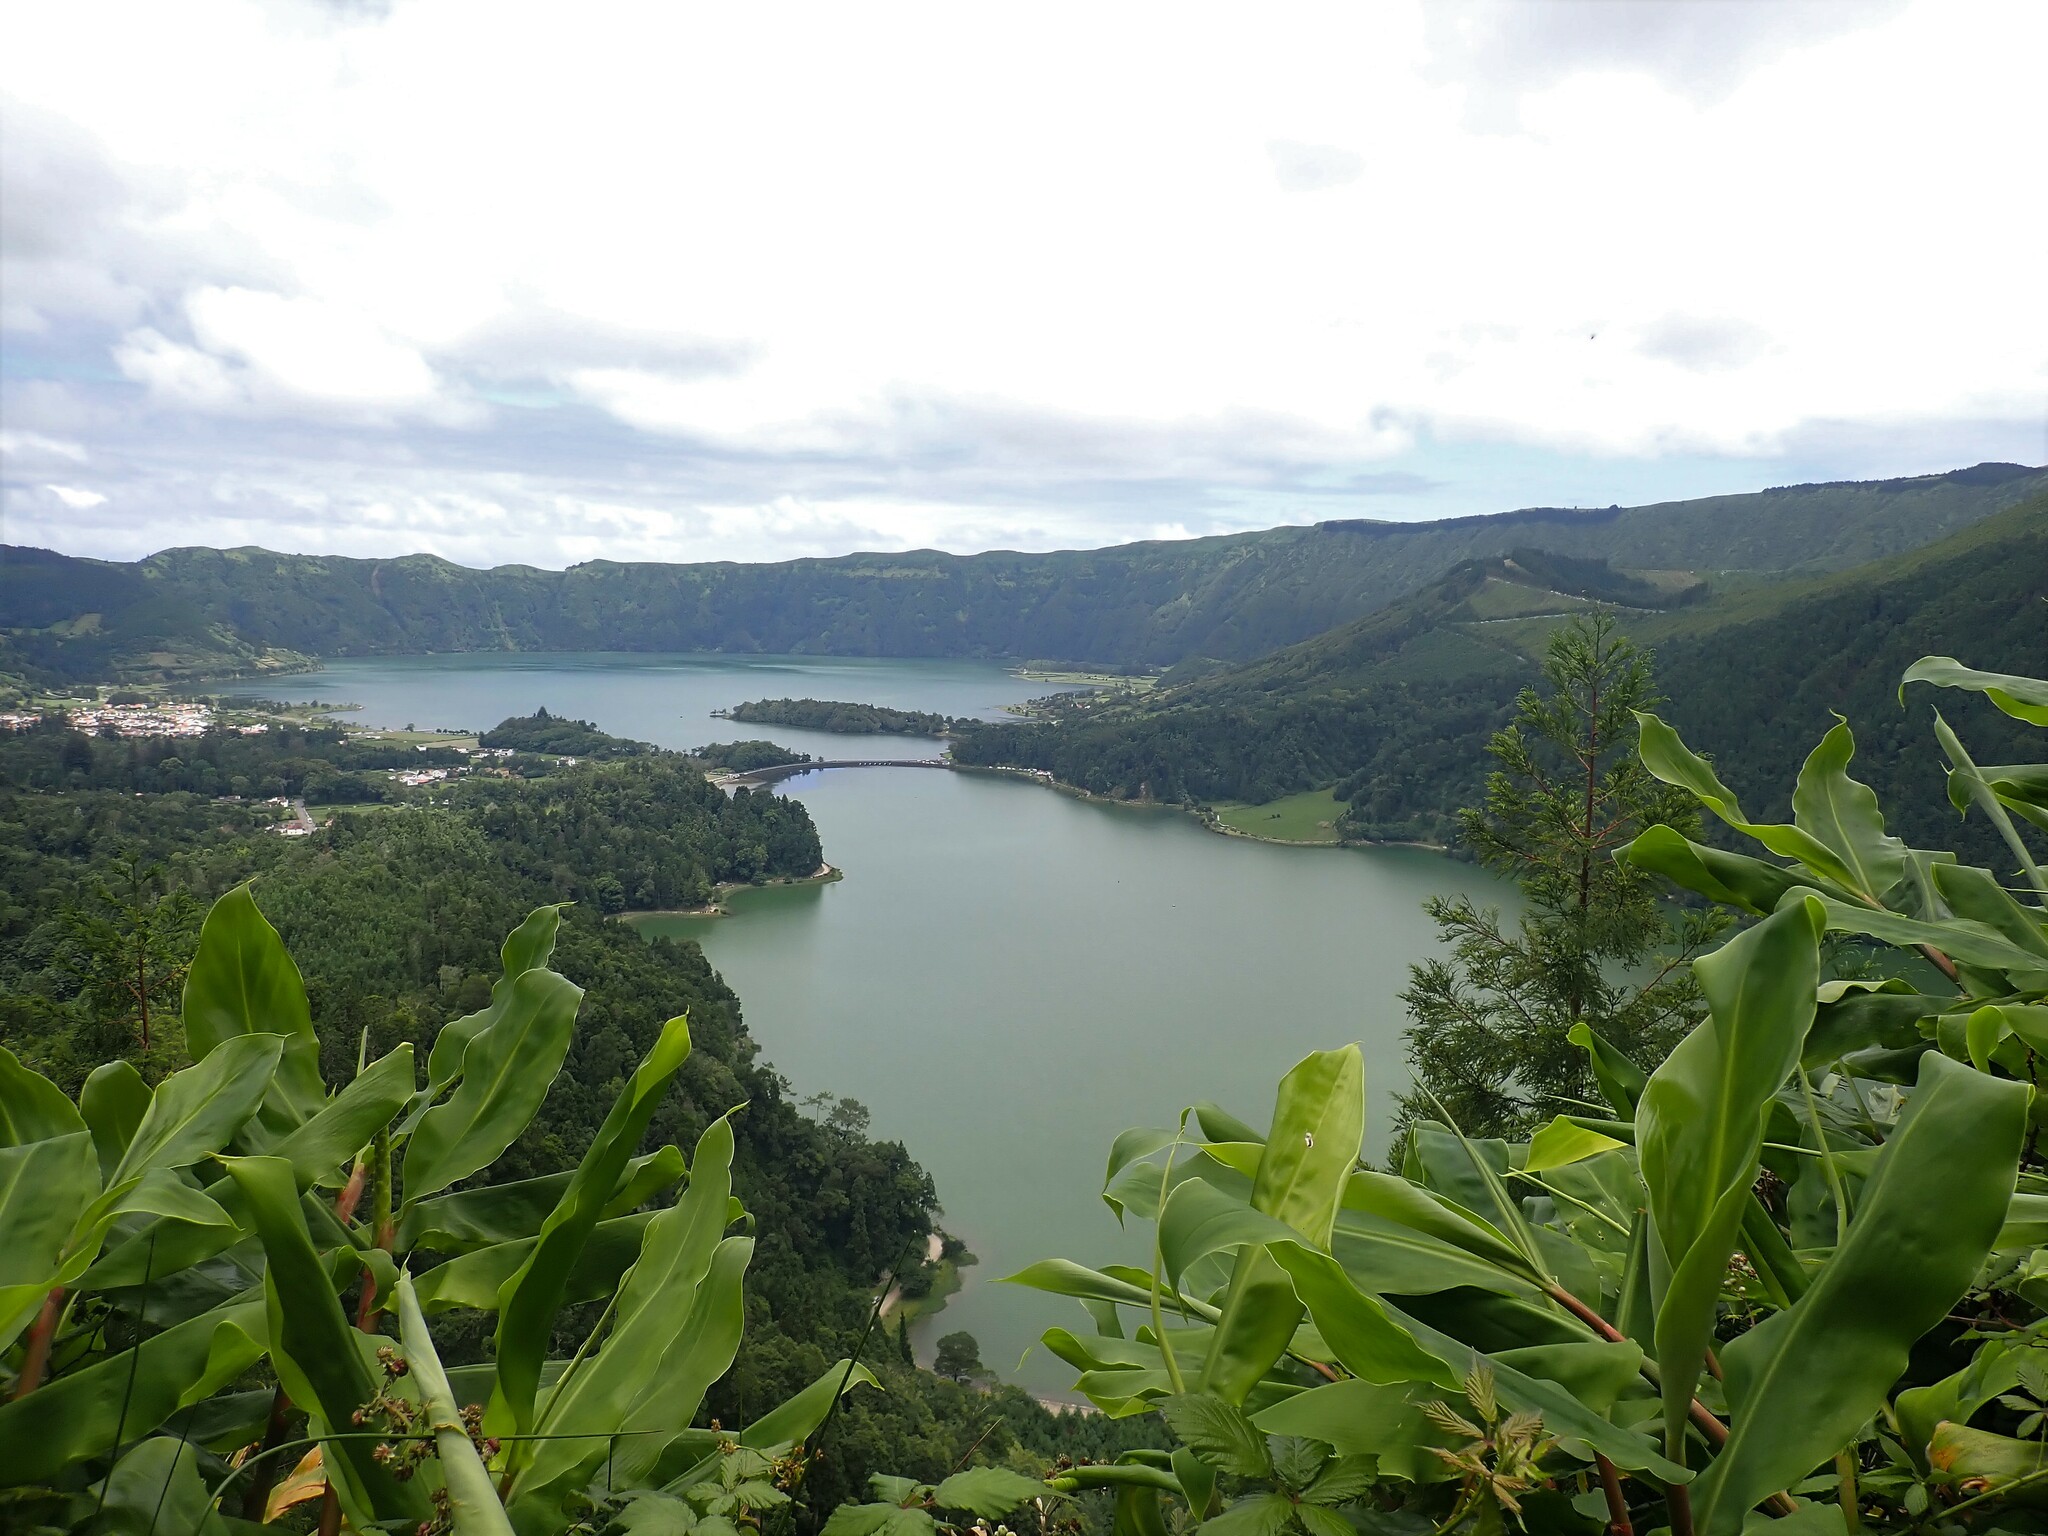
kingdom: Plantae
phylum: Tracheophyta
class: Liliopsida
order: Zingiberales
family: Zingiberaceae
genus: Hedychium
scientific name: Hedychium gardnerianum
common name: Himalayan ginger
